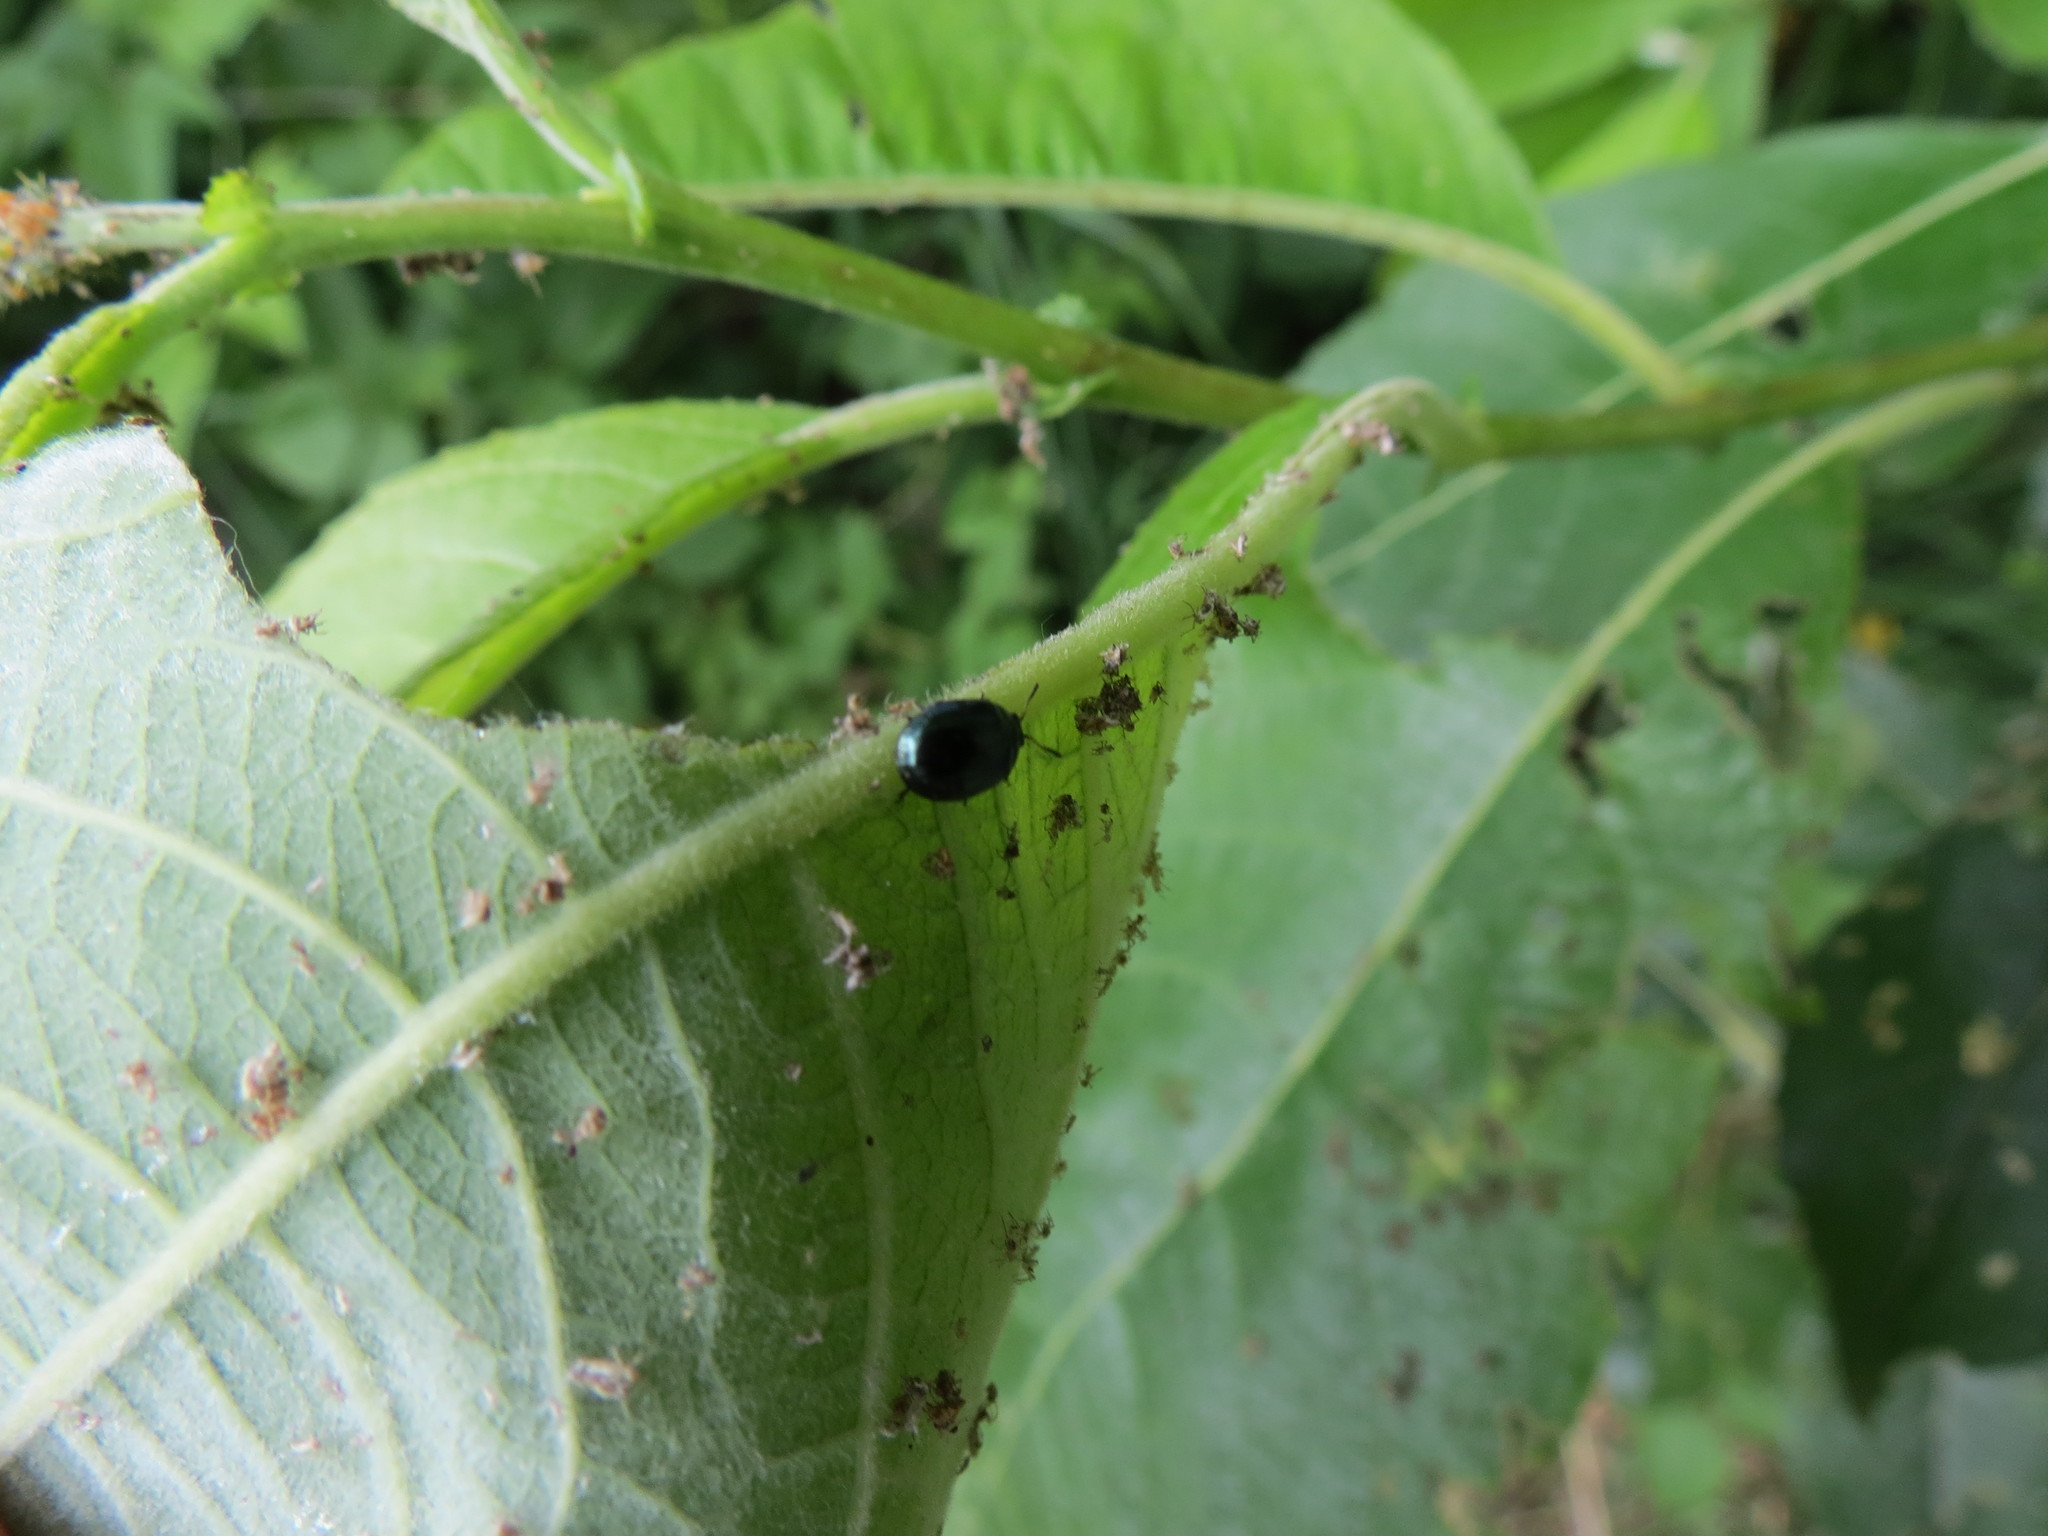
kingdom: Animalia
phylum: Arthropoda
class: Insecta
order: Coleoptera
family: Chrysomelidae
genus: Plagiodera
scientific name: Plagiodera versicolora
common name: Imported willow leaf beetle
